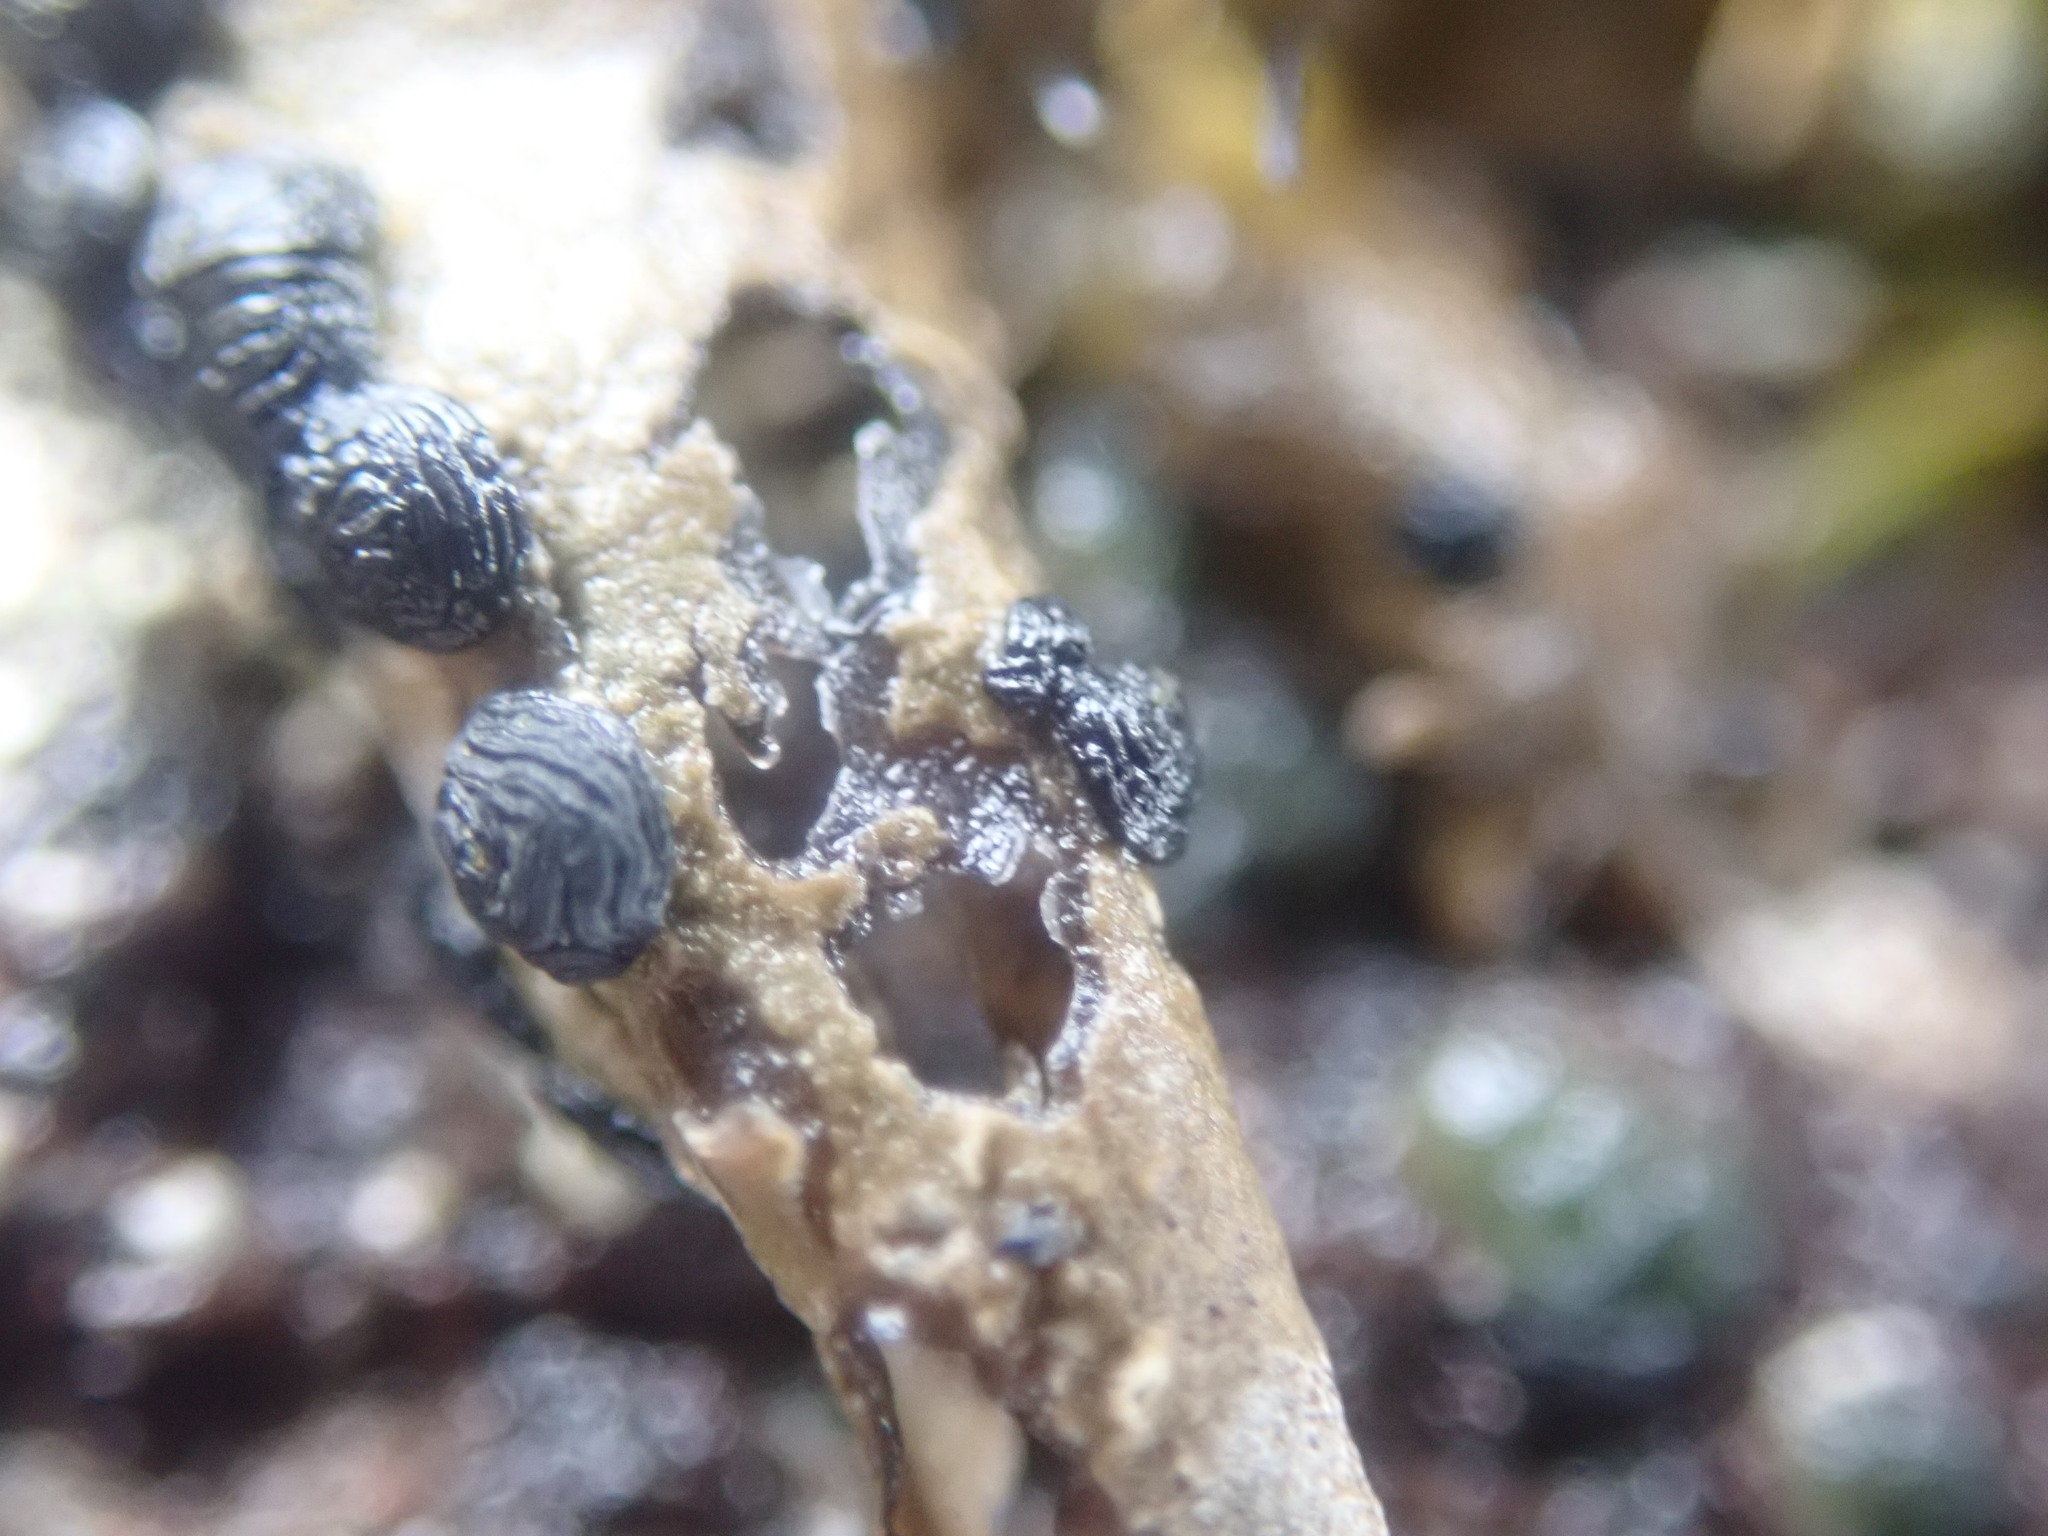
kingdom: Fungi
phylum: Ascomycota
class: Lecanoromycetes
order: Umbilicariales
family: Umbilicariaceae
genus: Umbilicaria
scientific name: Umbilicaria cylindrica
